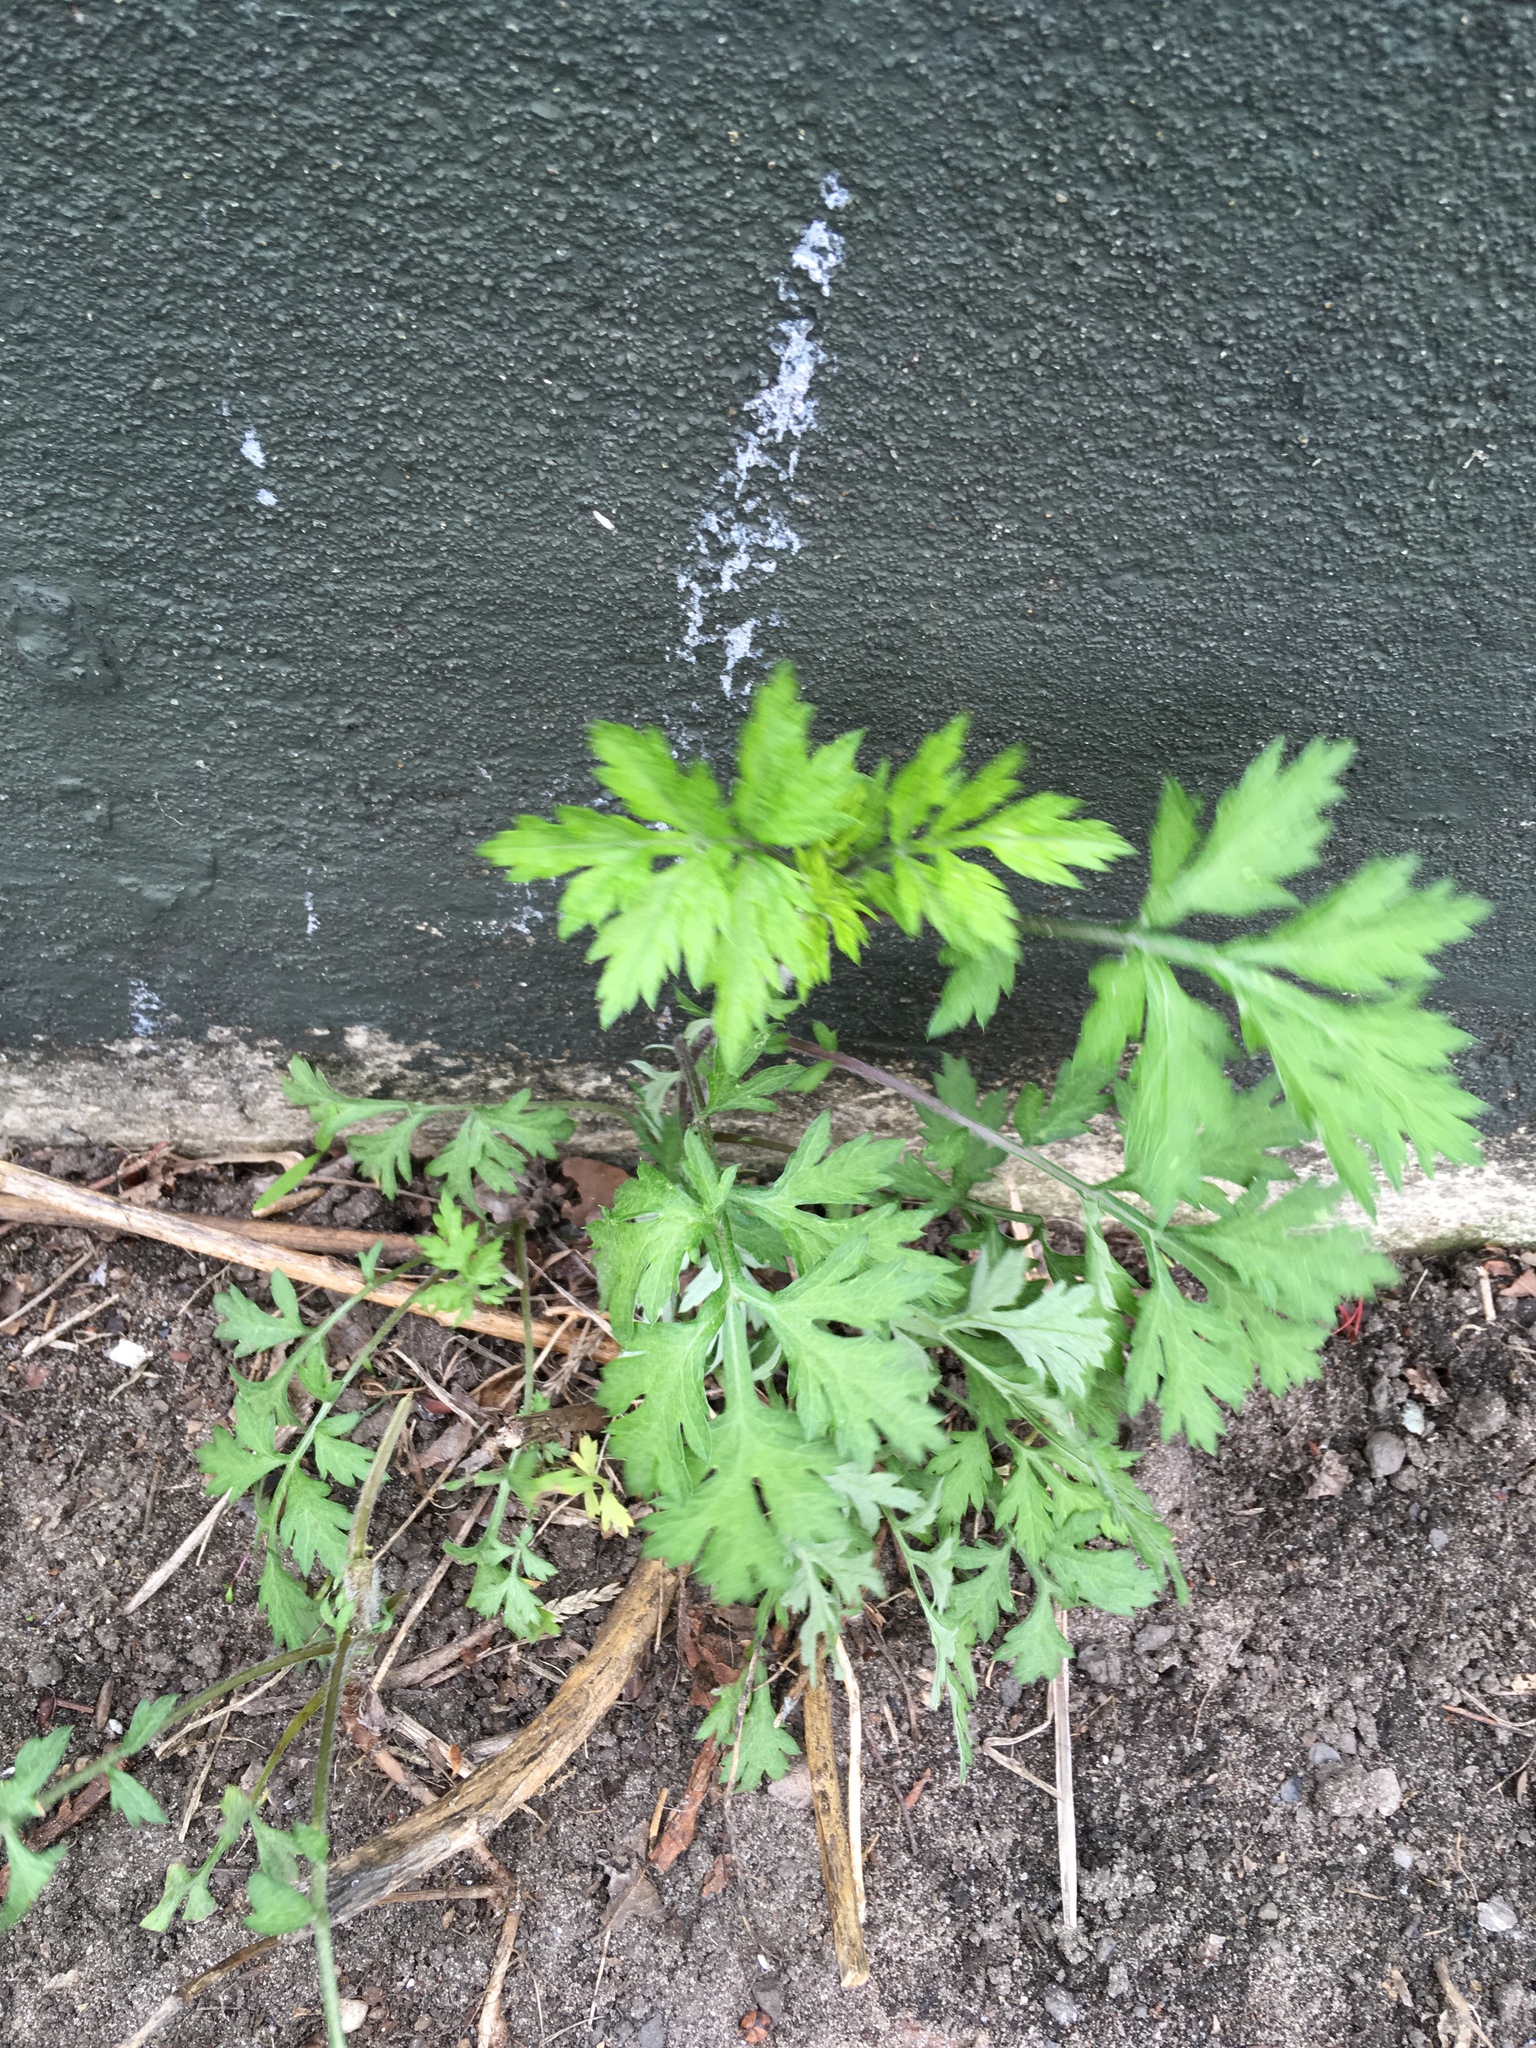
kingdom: Plantae
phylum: Tracheophyta
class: Magnoliopsida
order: Asterales
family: Asteraceae
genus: Artemisia
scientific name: Artemisia vulgaris
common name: Mugwort
